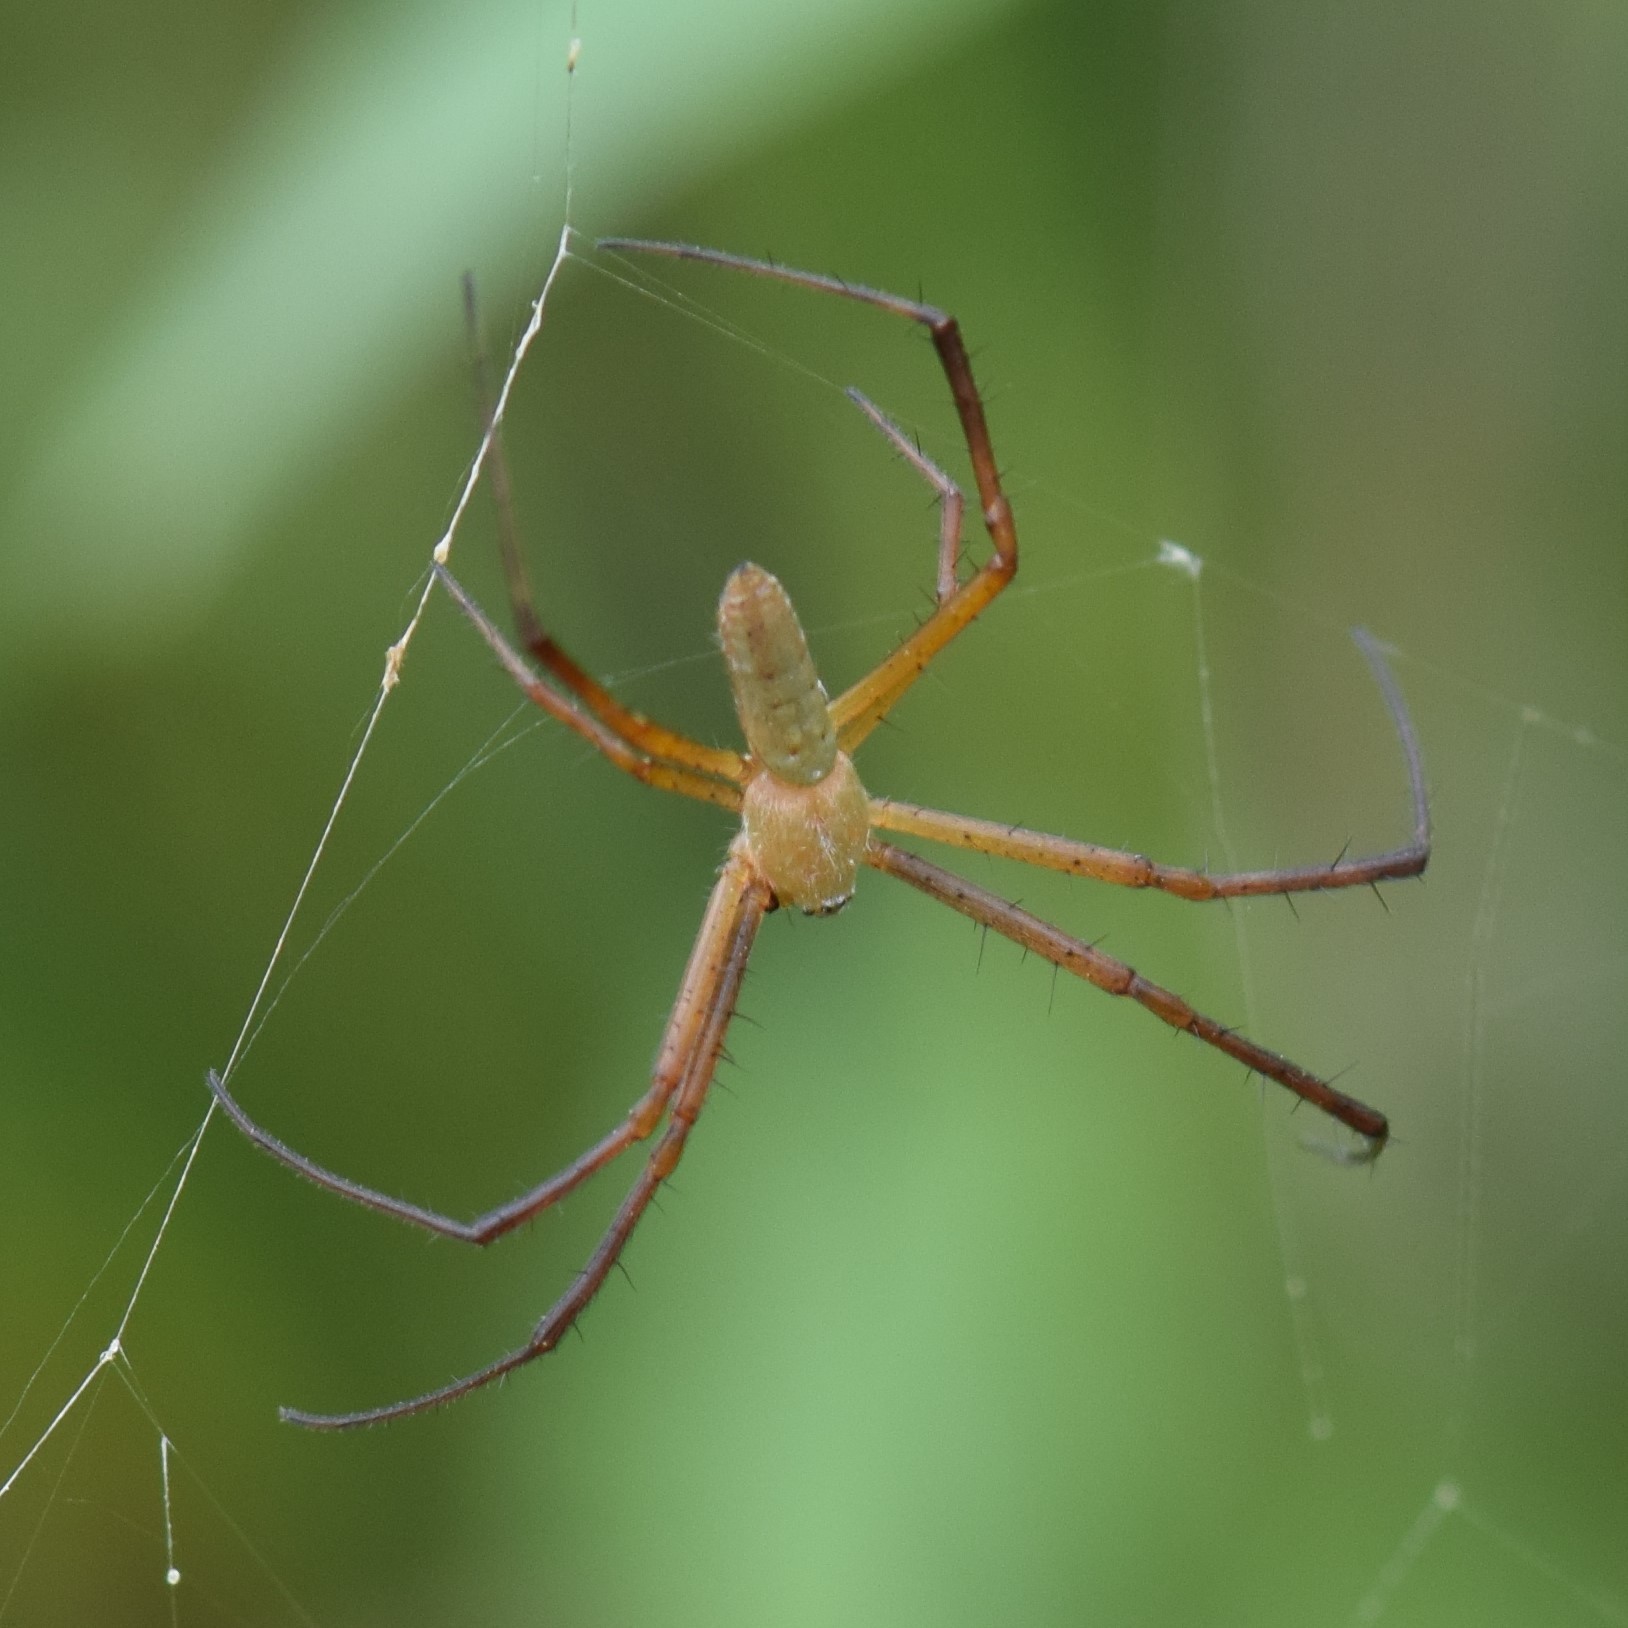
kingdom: Animalia
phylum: Arthropoda
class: Arachnida
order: Araneae
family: Araneidae
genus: Argiope
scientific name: Argiope trifasciata
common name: Banded garden spider
